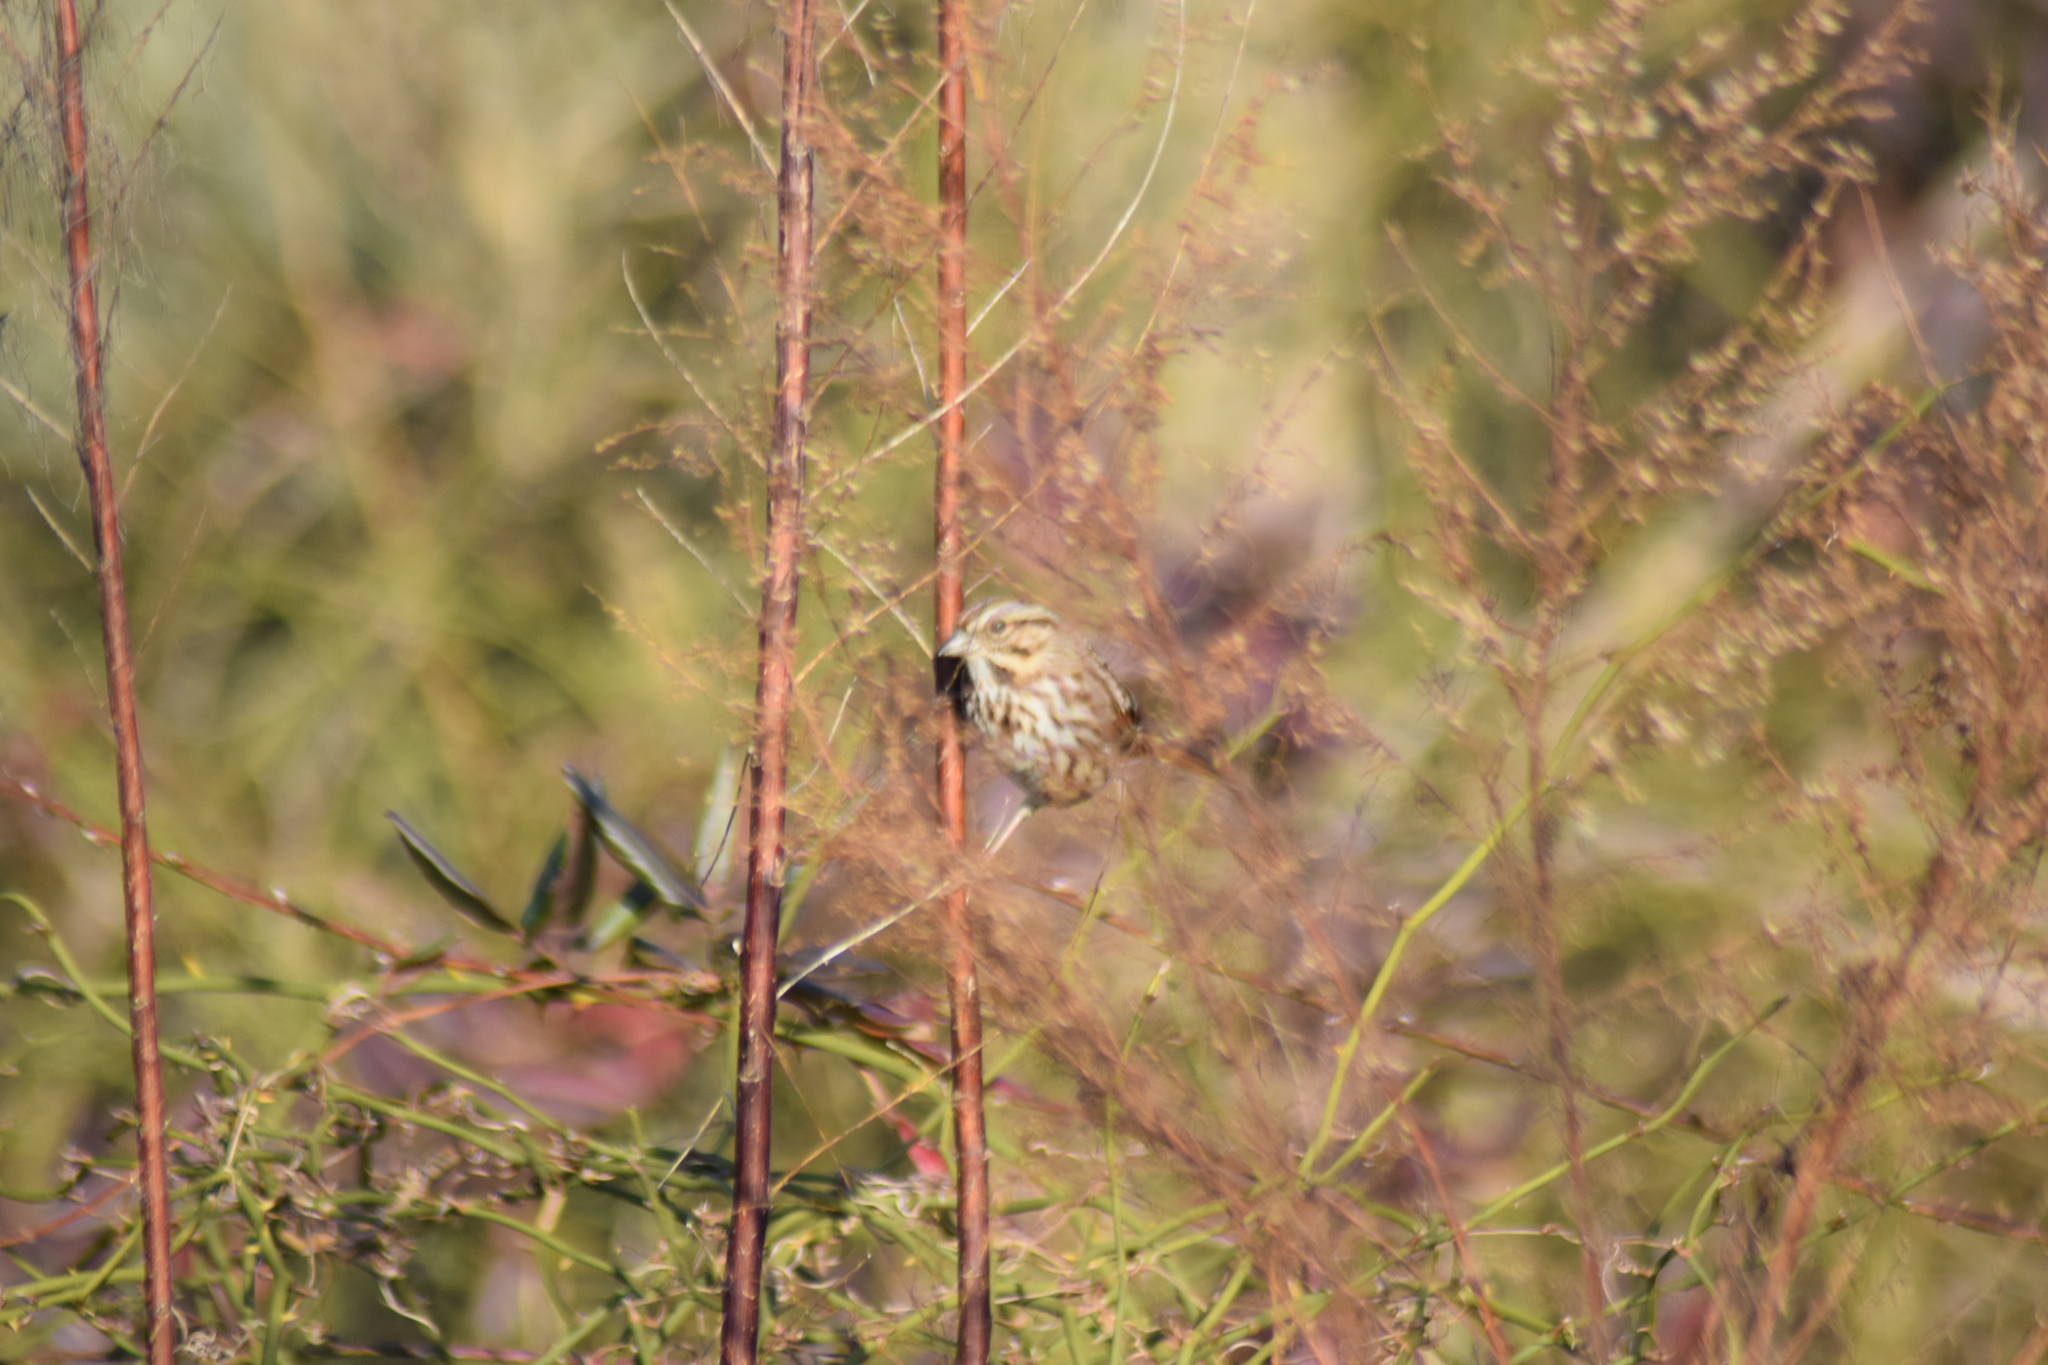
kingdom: Animalia
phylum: Chordata
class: Aves
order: Passeriformes
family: Passerellidae
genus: Melospiza
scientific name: Melospiza melodia
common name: Song sparrow
